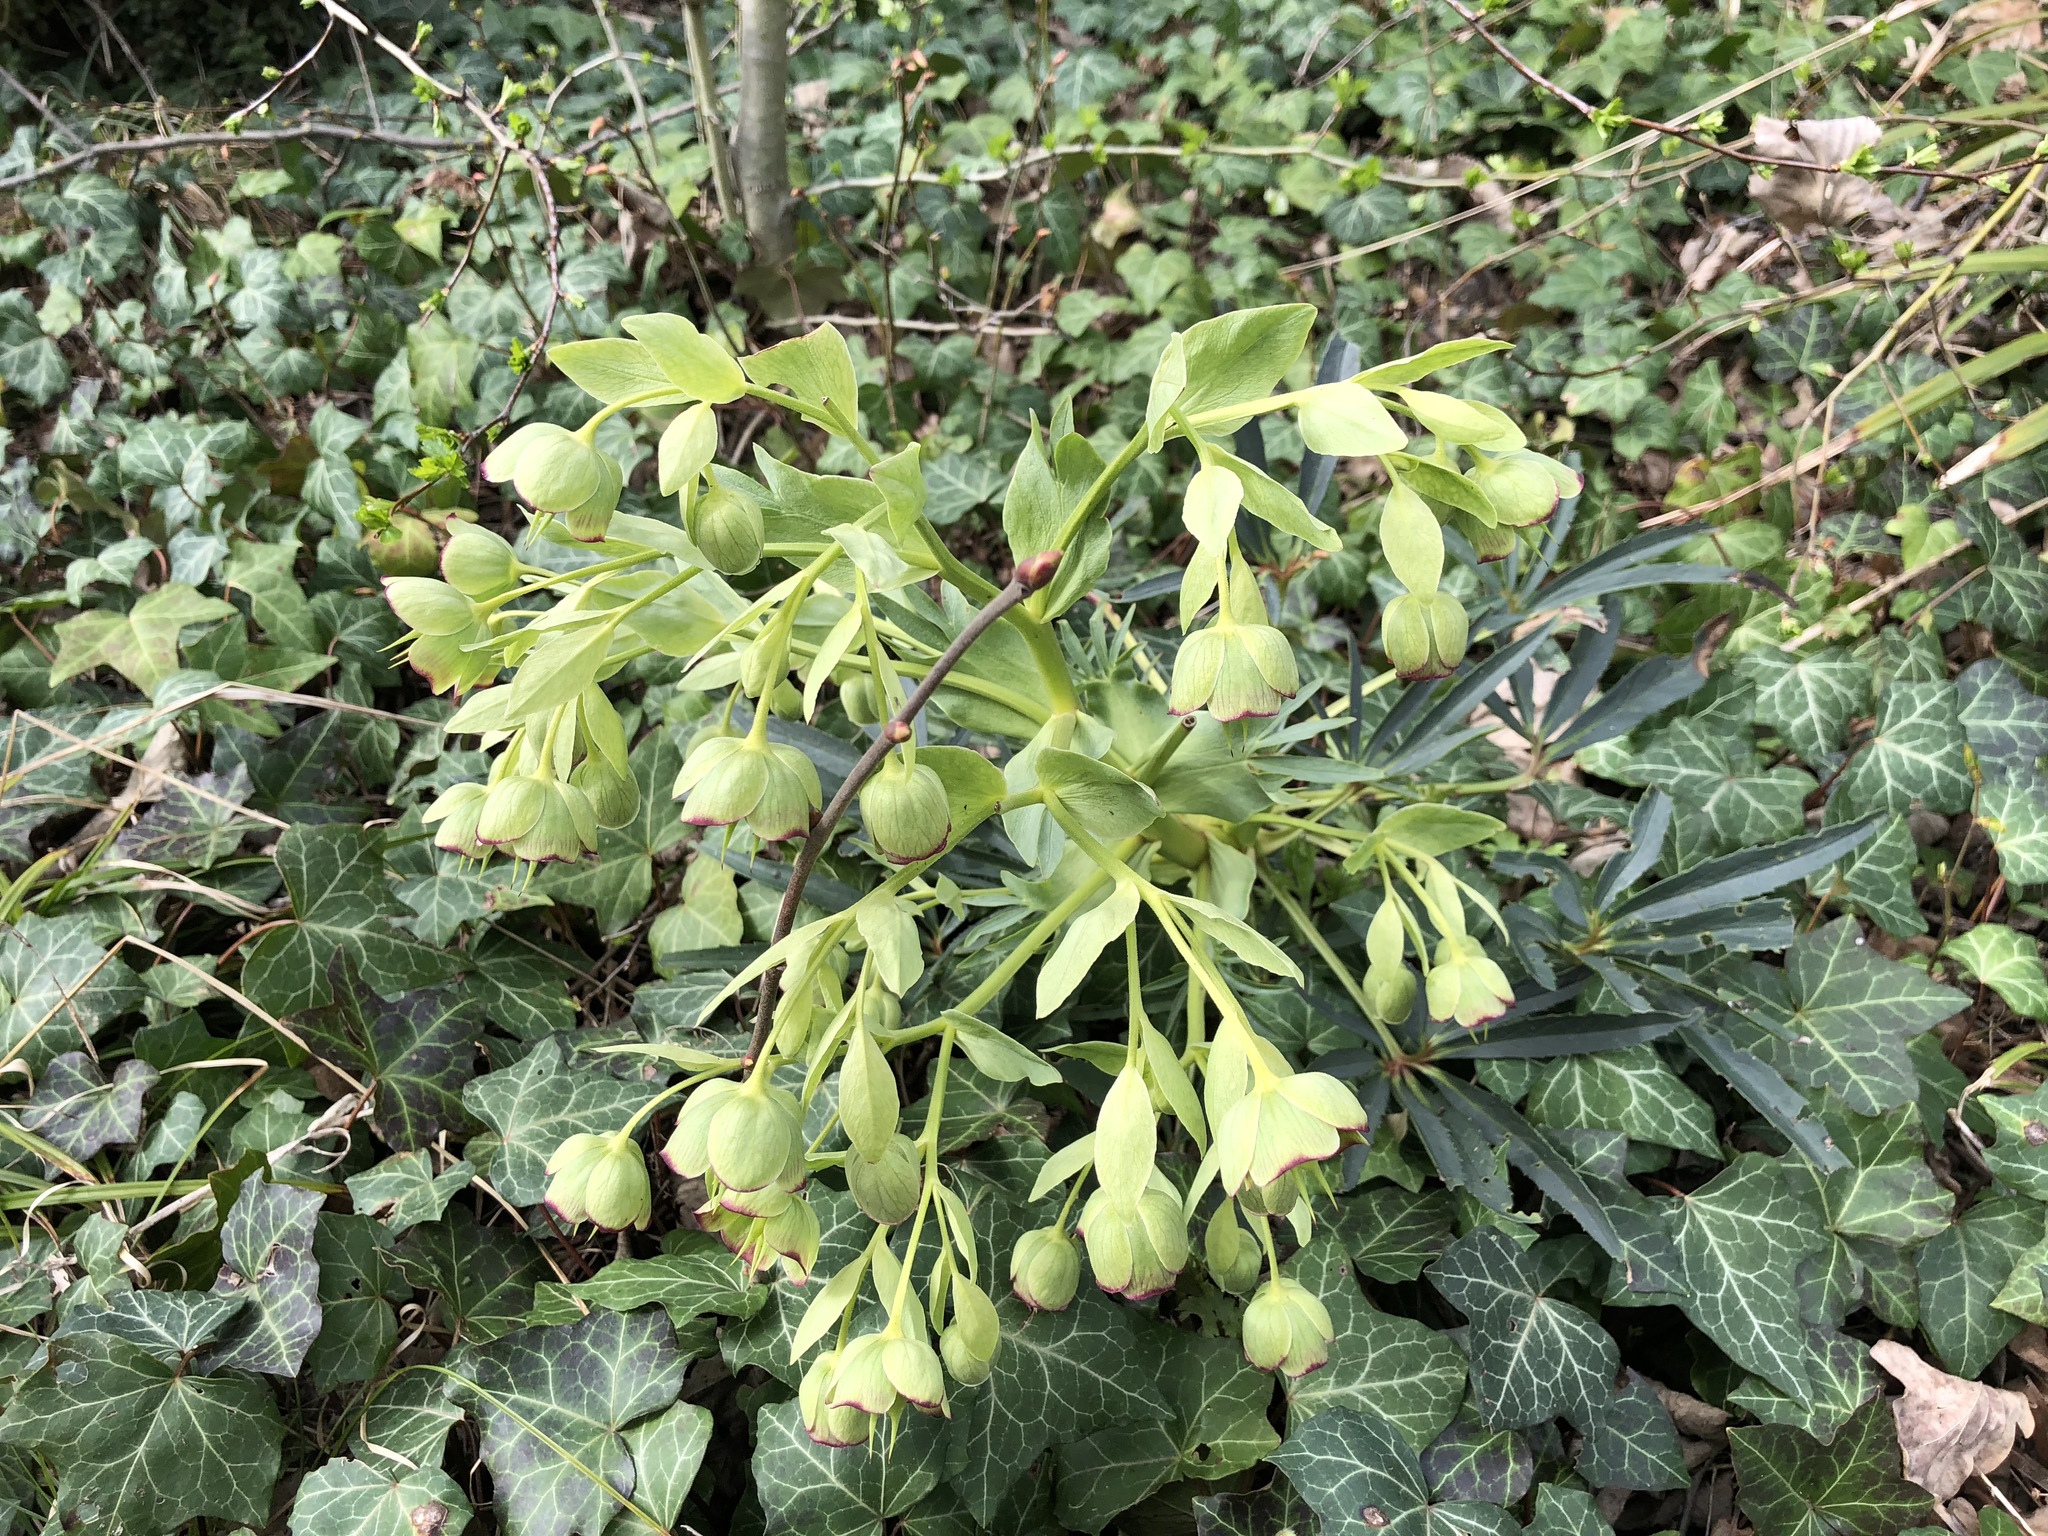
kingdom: Plantae
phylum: Tracheophyta
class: Magnoliopsida
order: Ranunculales
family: Ranunculaceae
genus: Helleborus
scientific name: Helleborus foetidus
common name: Stinking hellebore
